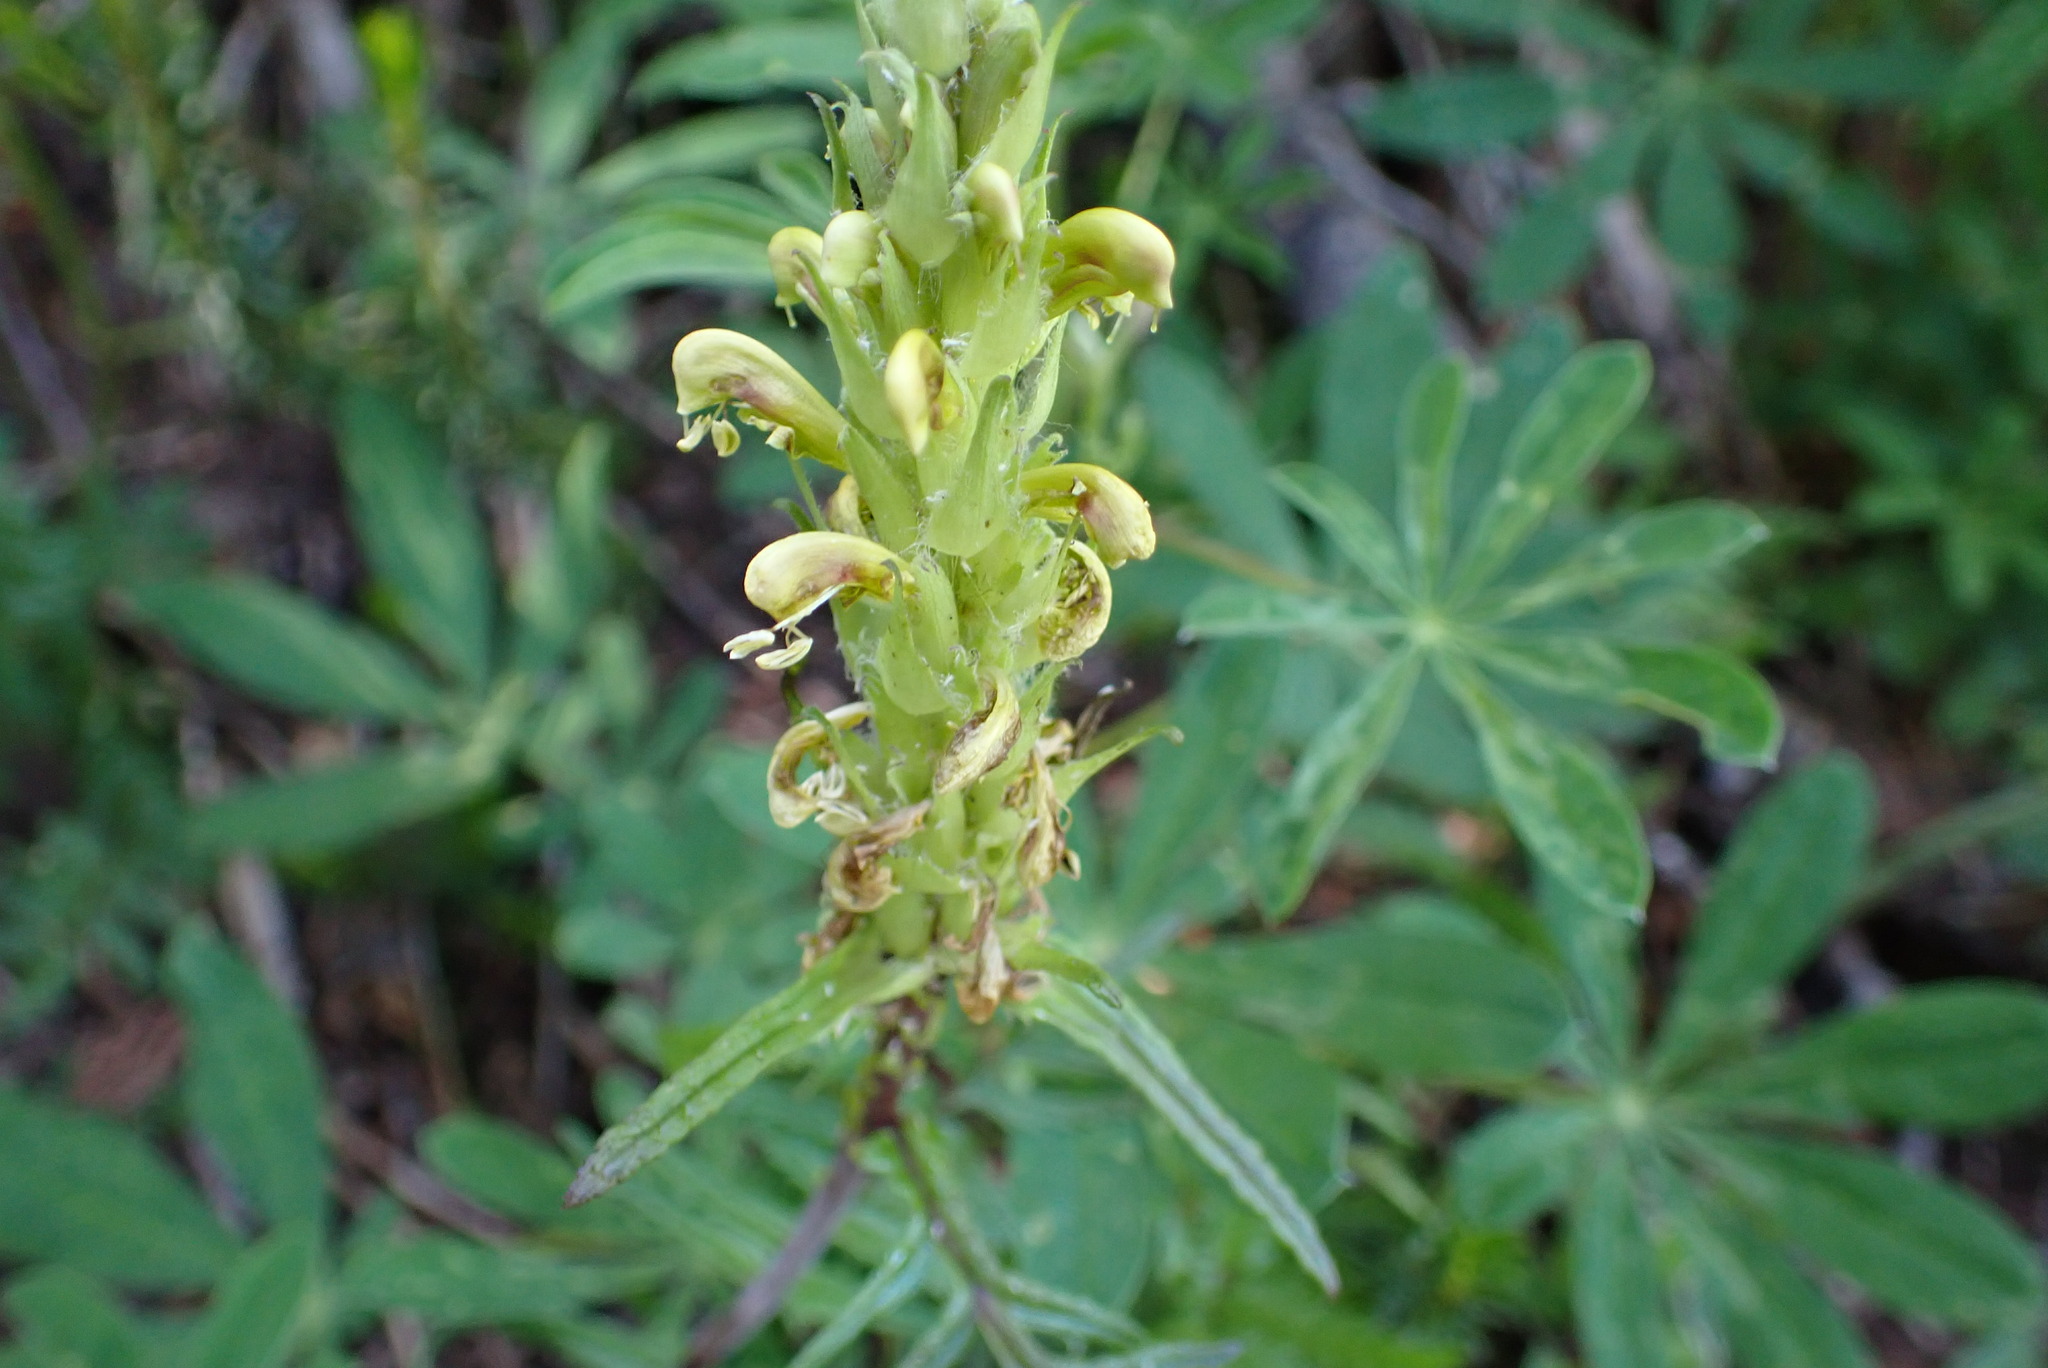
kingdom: Plantae
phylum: Tracheophyta
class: Magnoliopsida
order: Lamiales
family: Orobanchaceae
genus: Pedicularis
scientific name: Pedicularis bracteosa
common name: Bracted lousewort
